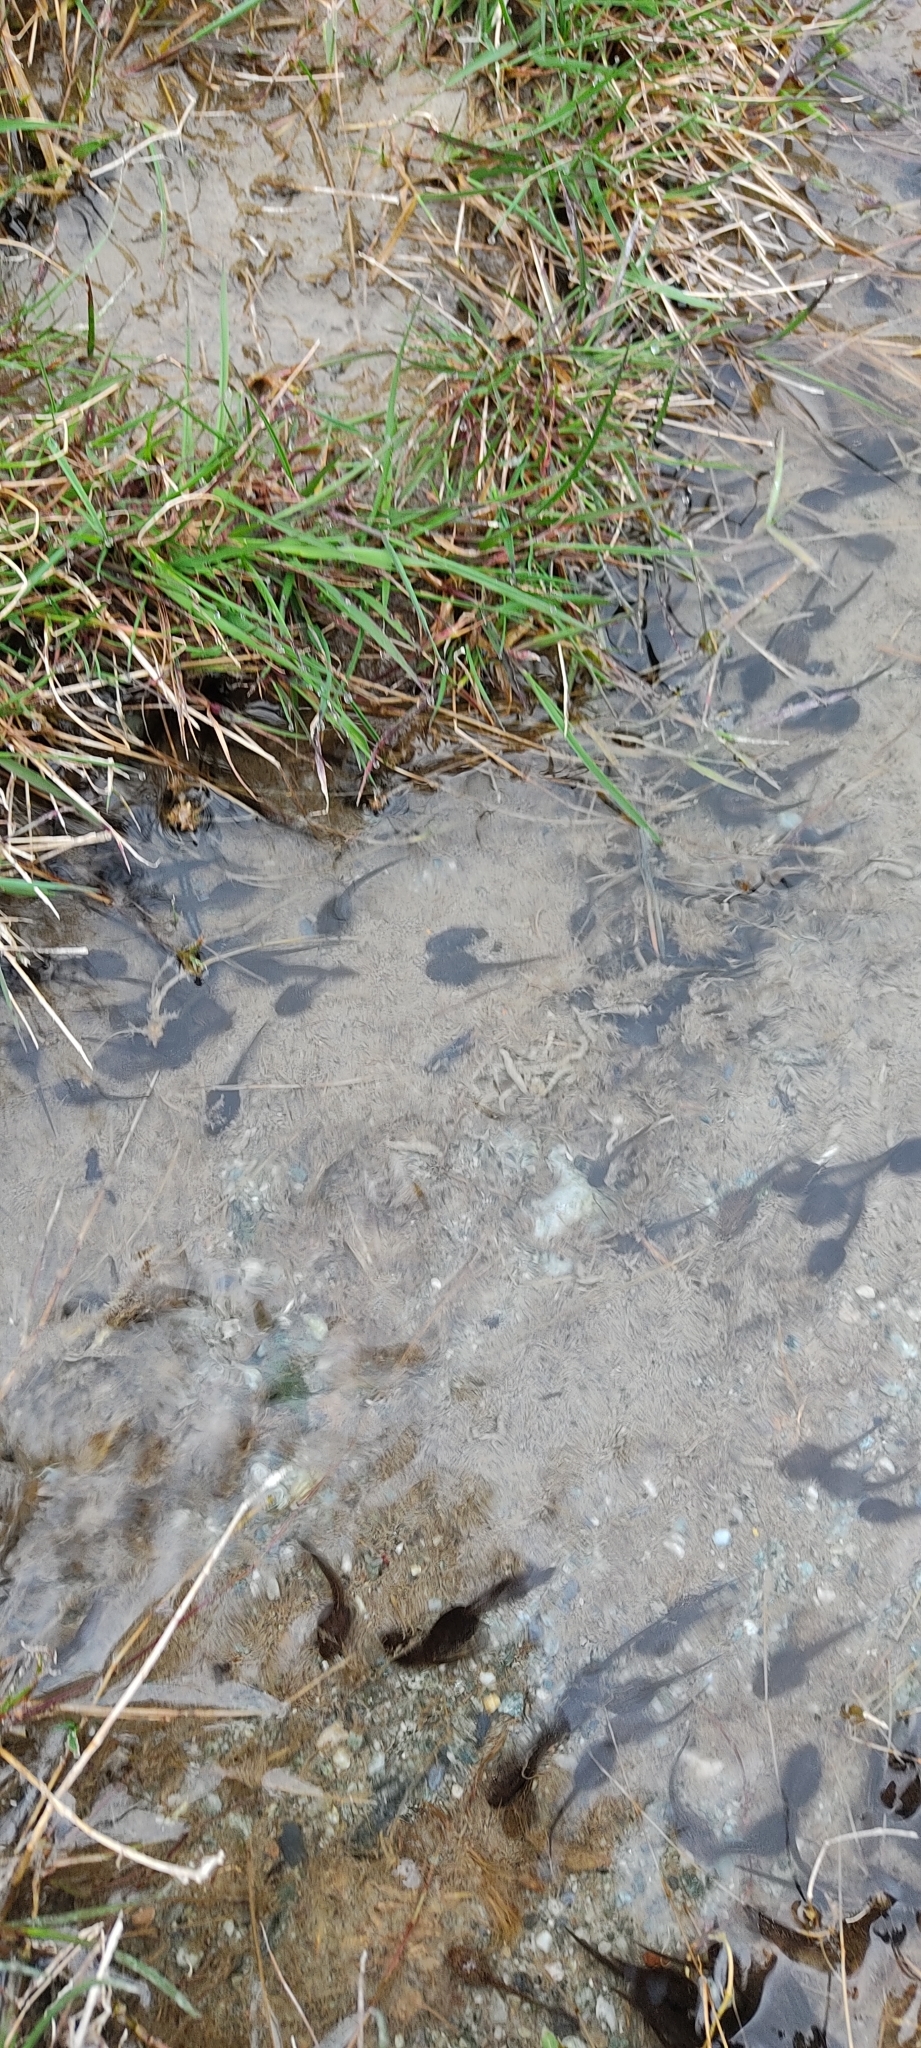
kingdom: Animalia
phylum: Chordata
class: Amphibia
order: Anura
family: Ranidae
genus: Rana
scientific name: Rana temporaria
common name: Common frog
